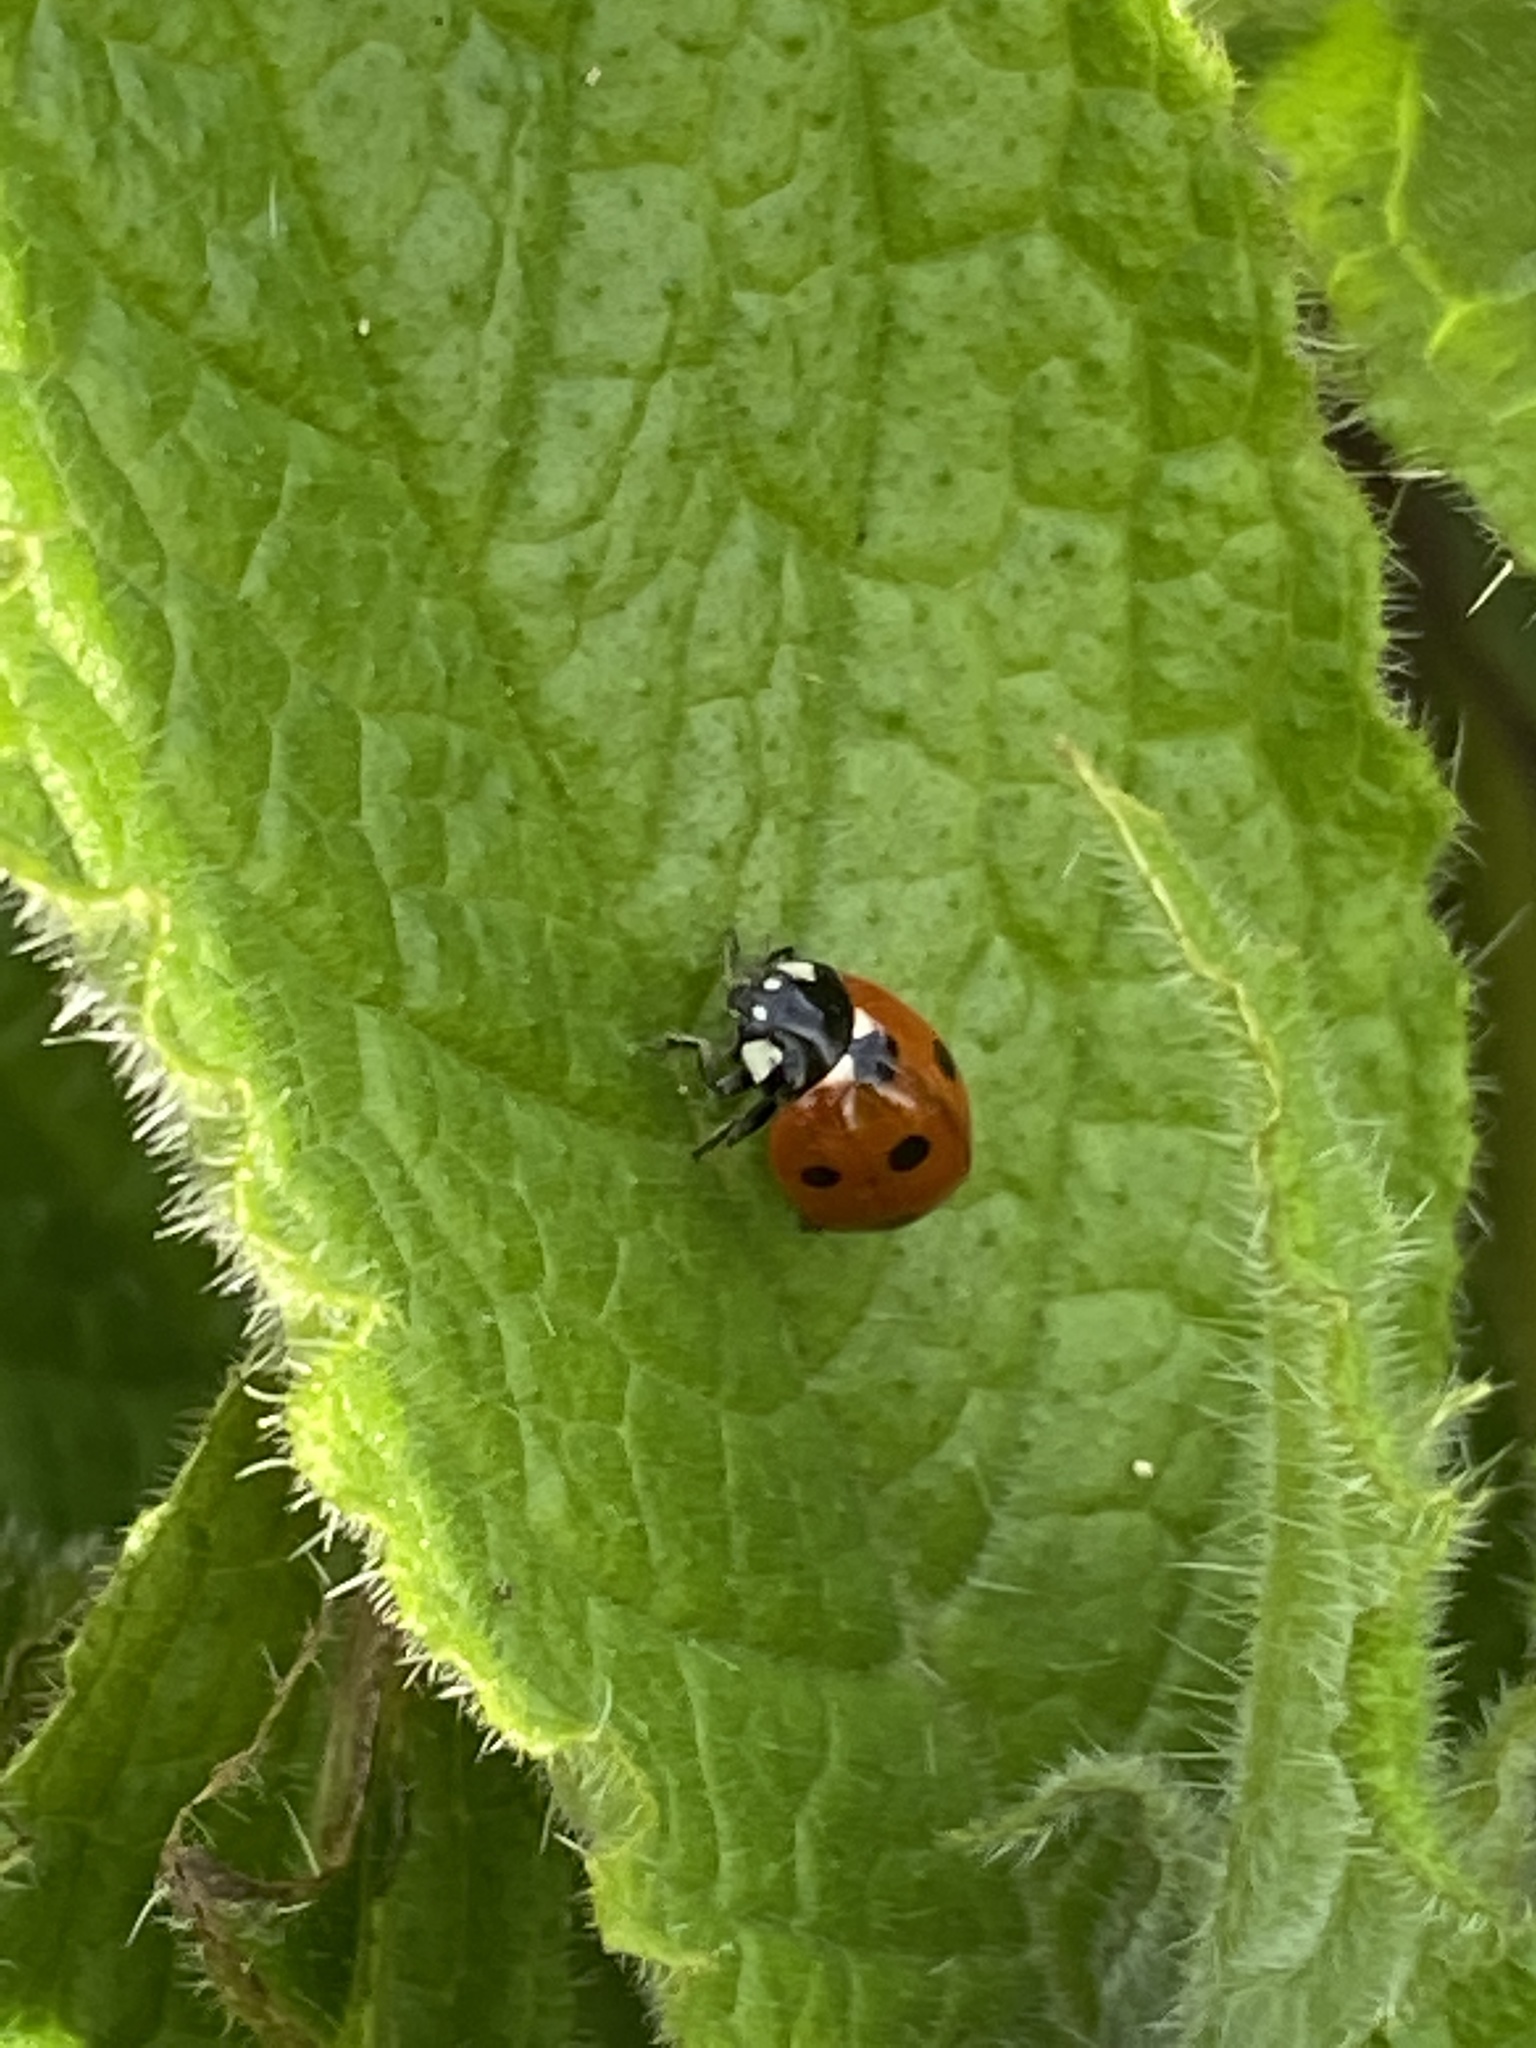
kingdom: Animalia
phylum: Arthropoda
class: Insecta
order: Coleoptera
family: Coccinellidae
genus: Coccinella
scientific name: Coccinella septempunctata
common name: Sevenspotted lady beetle
